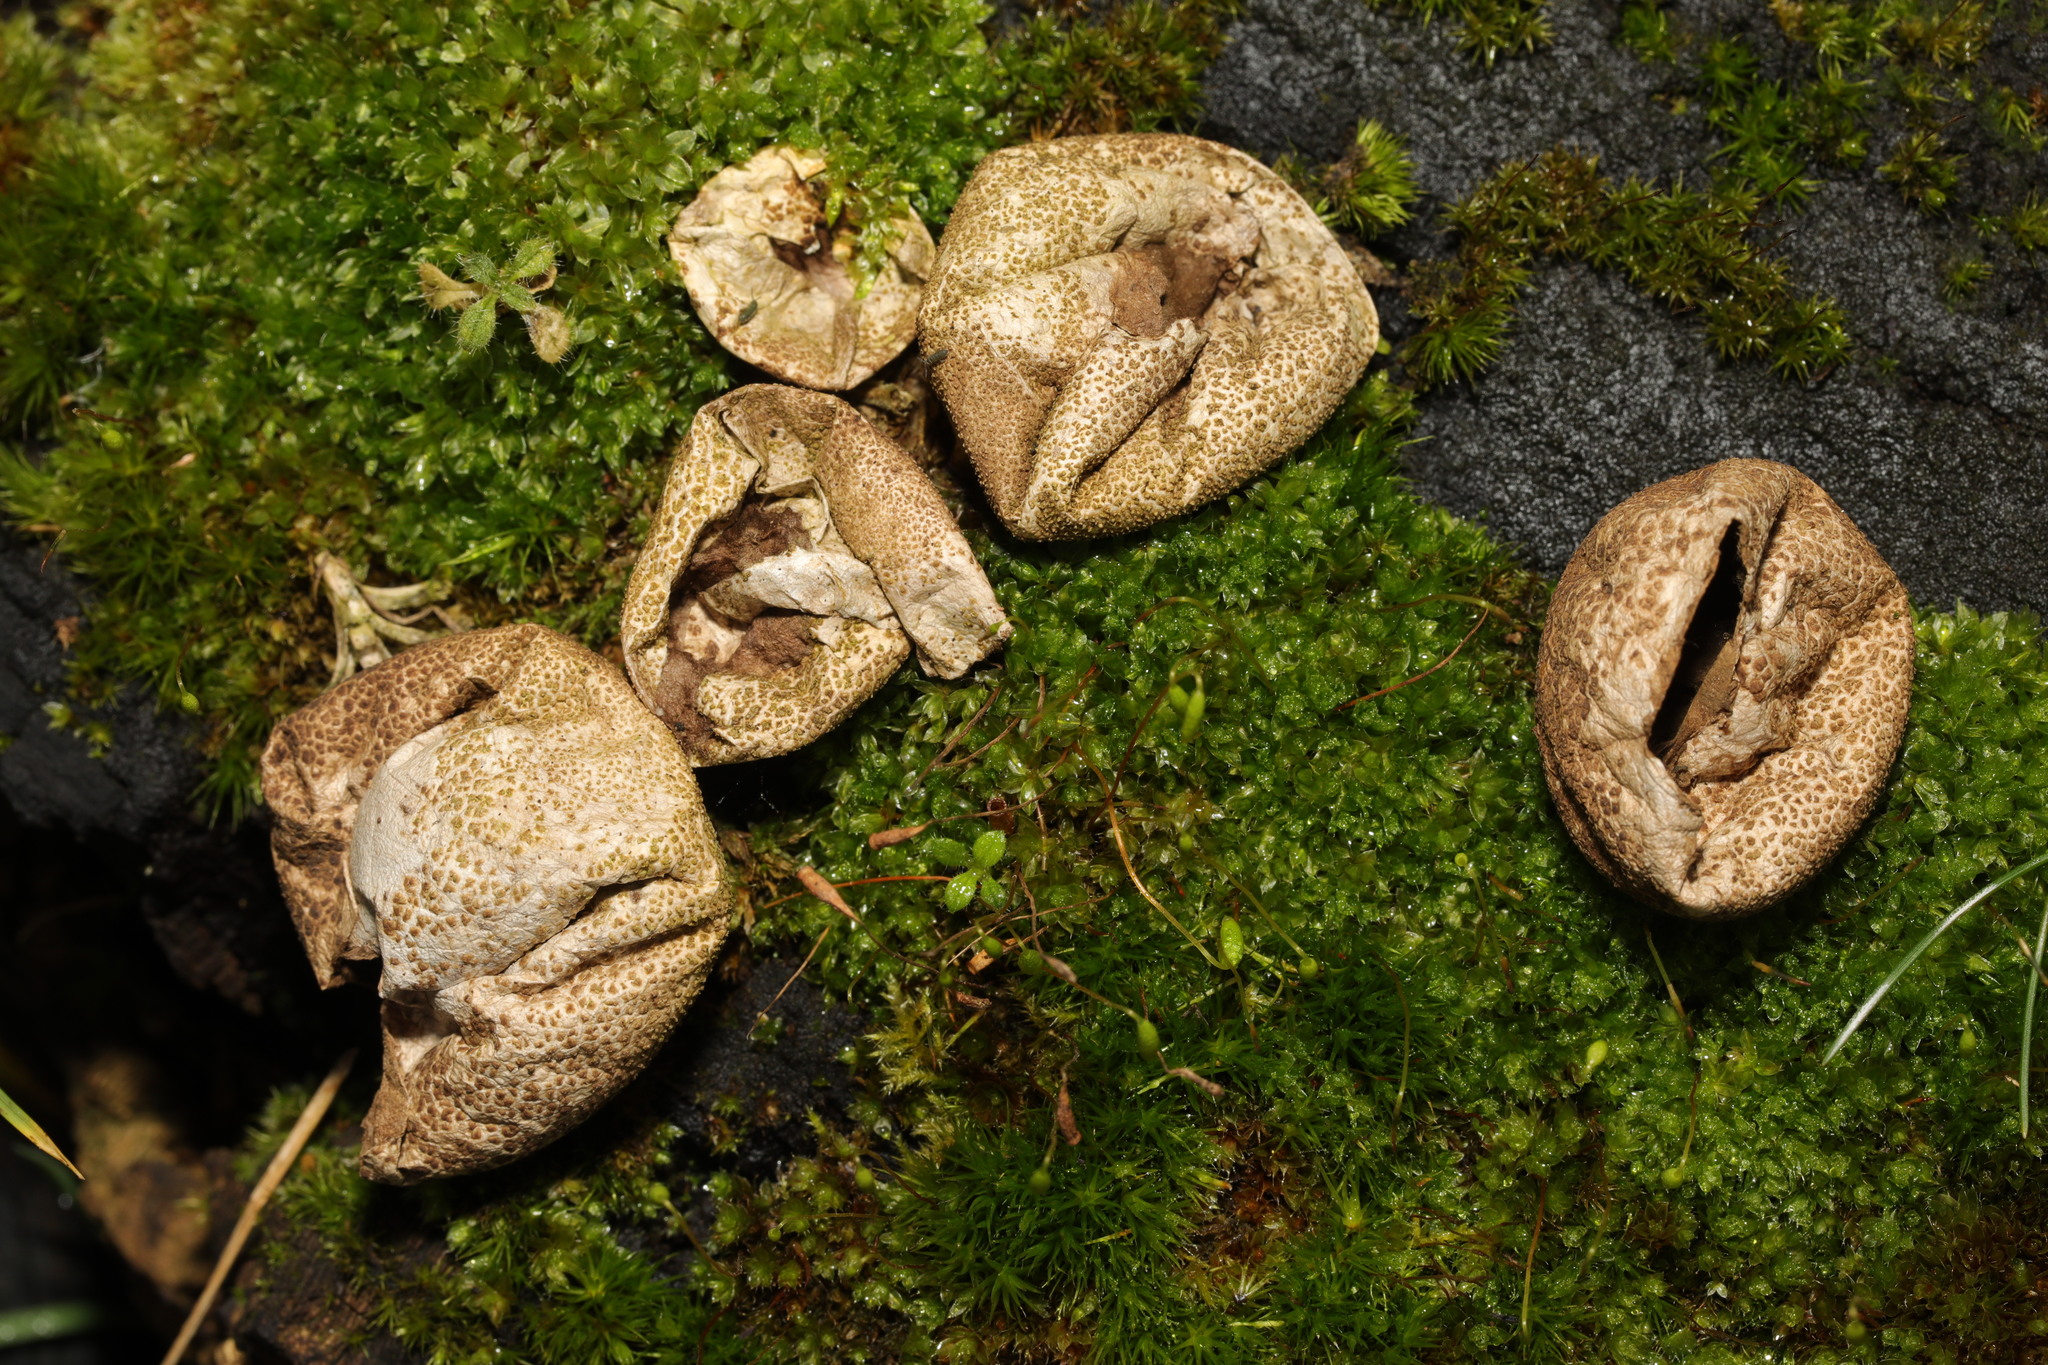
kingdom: Fungi
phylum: Basidiomycota
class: Agaricomycetes
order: Agaricales
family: Lycoperdaceae
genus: Apioperdon
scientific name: Apioperdon pyriforme
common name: Pear-shaped puffball
